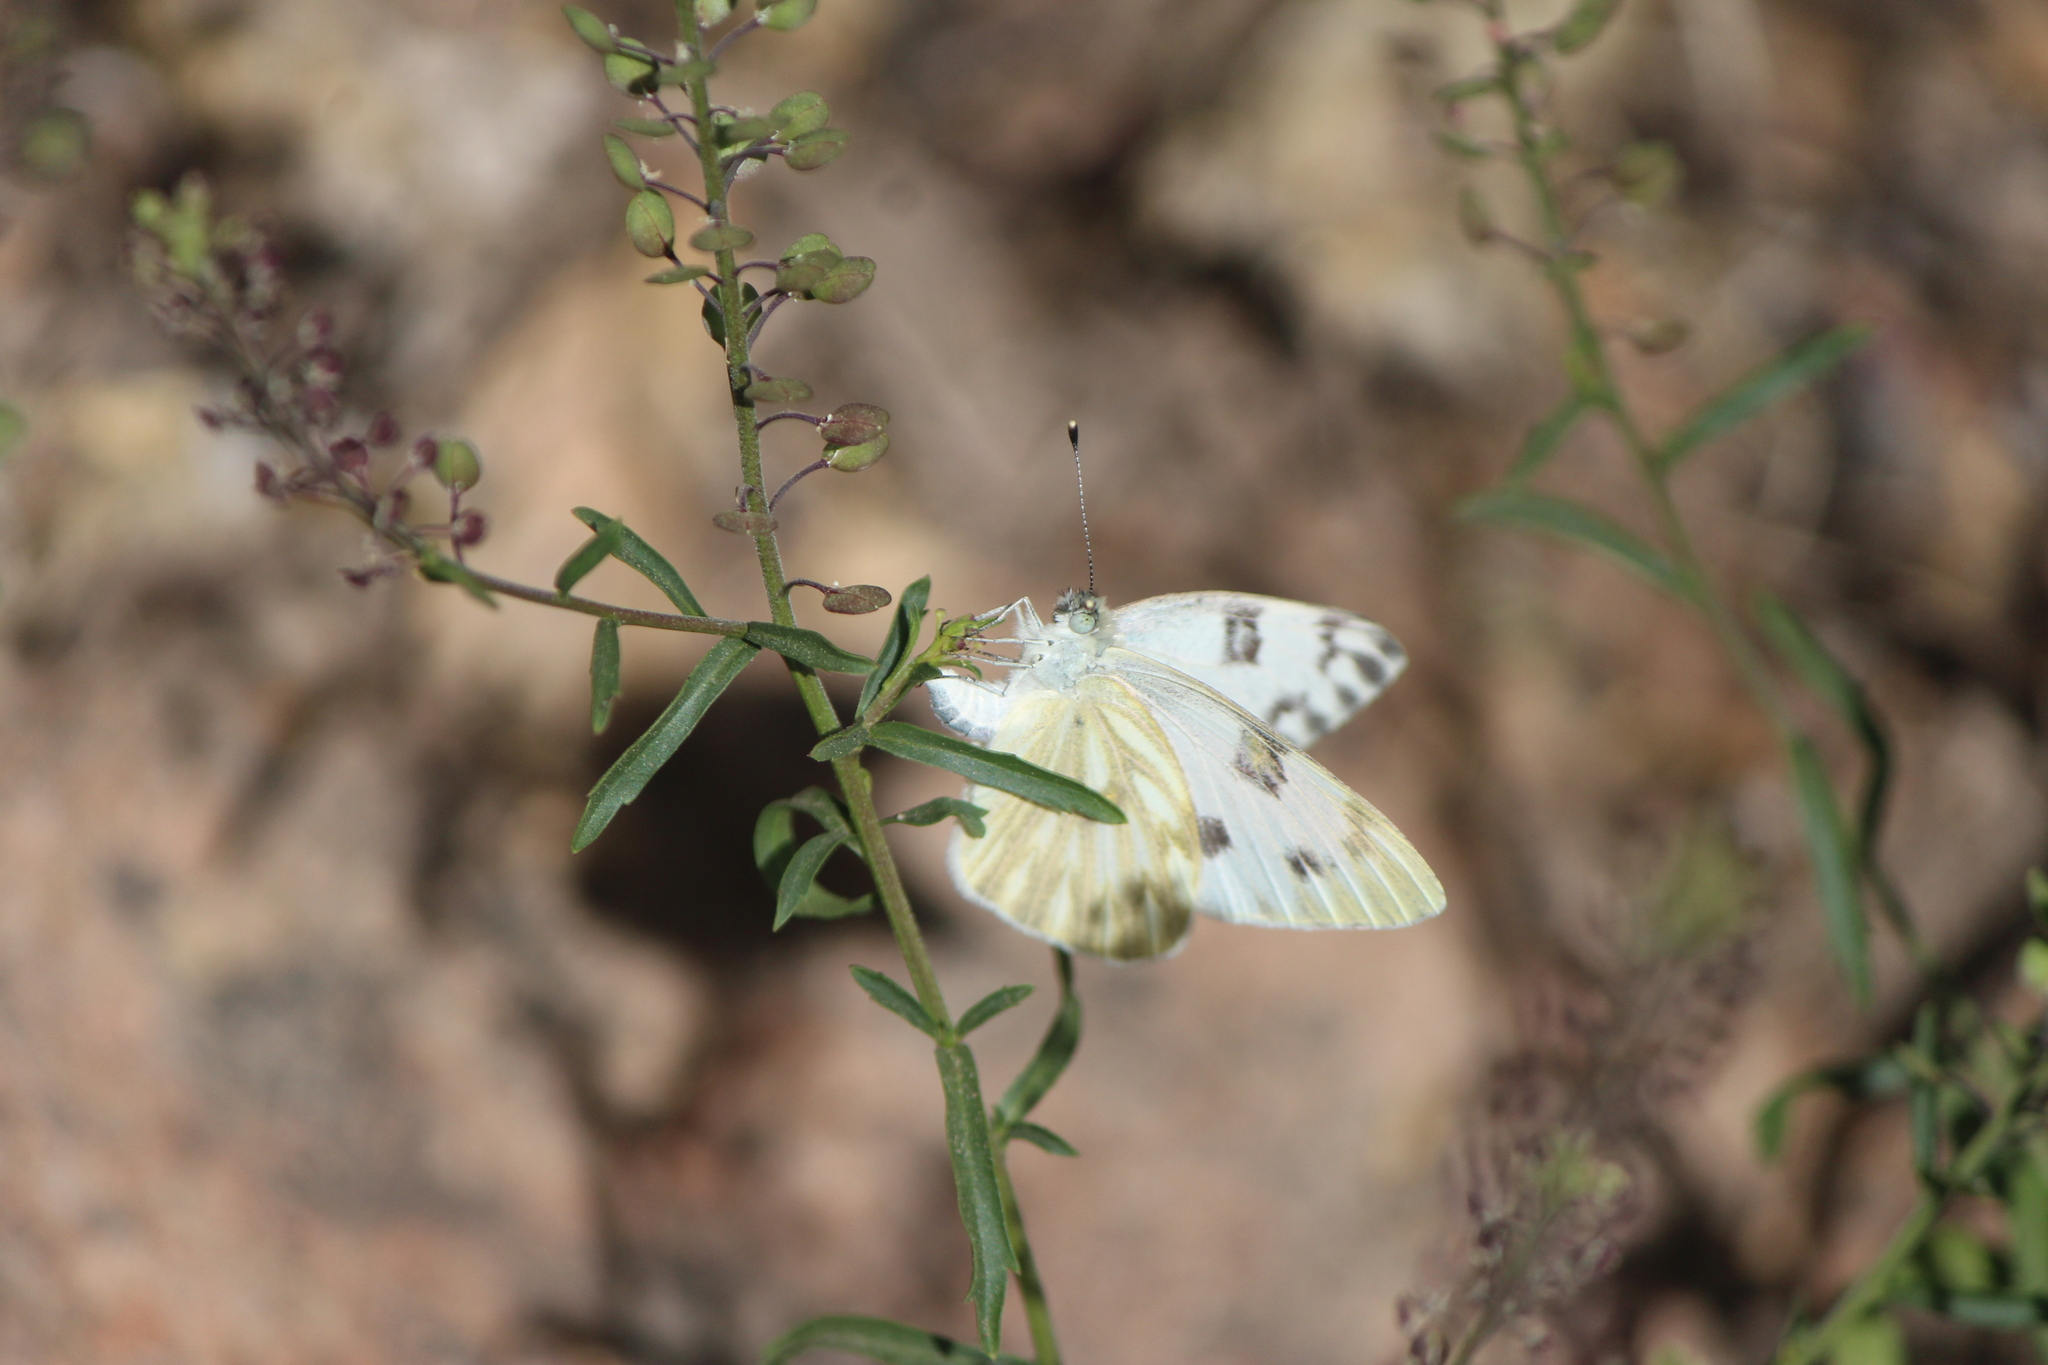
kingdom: Animalia
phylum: Arthropoda
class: Insecta
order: Lepidoptera
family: Pieridae
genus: Pontia
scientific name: Pontia protodice
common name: Checkered white
